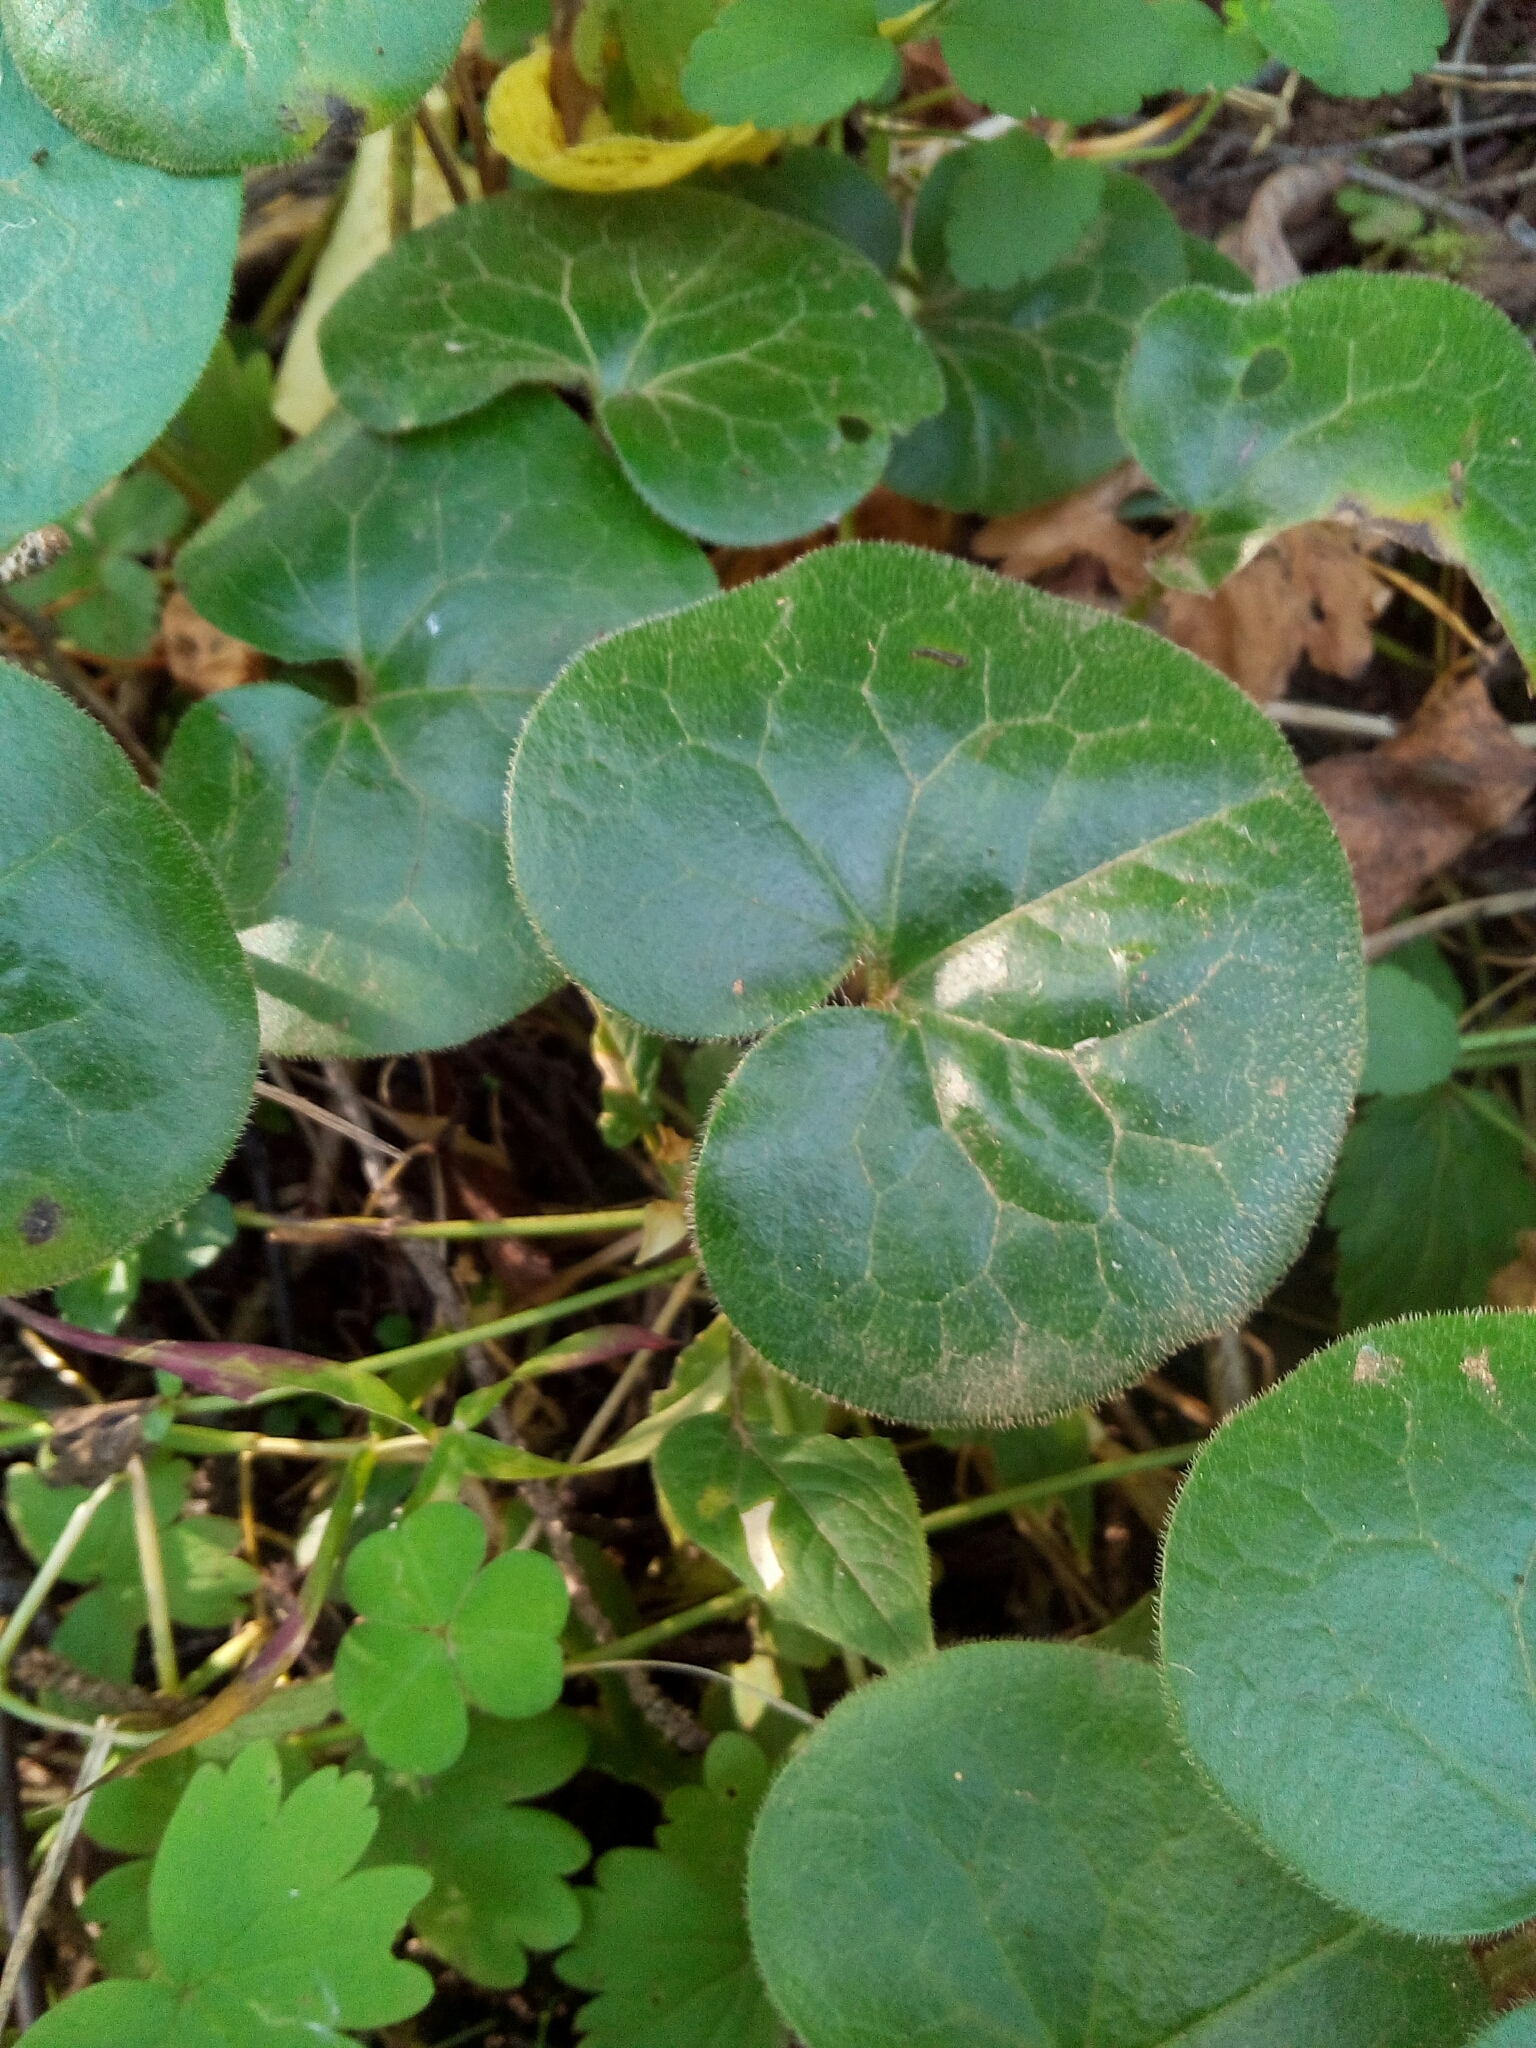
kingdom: Plantae
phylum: Tracheophyta
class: Magnoliopsida
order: Piperales
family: Aristolochiaceae
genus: Asarum
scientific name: Asarum europaeum
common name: Asarabacca
